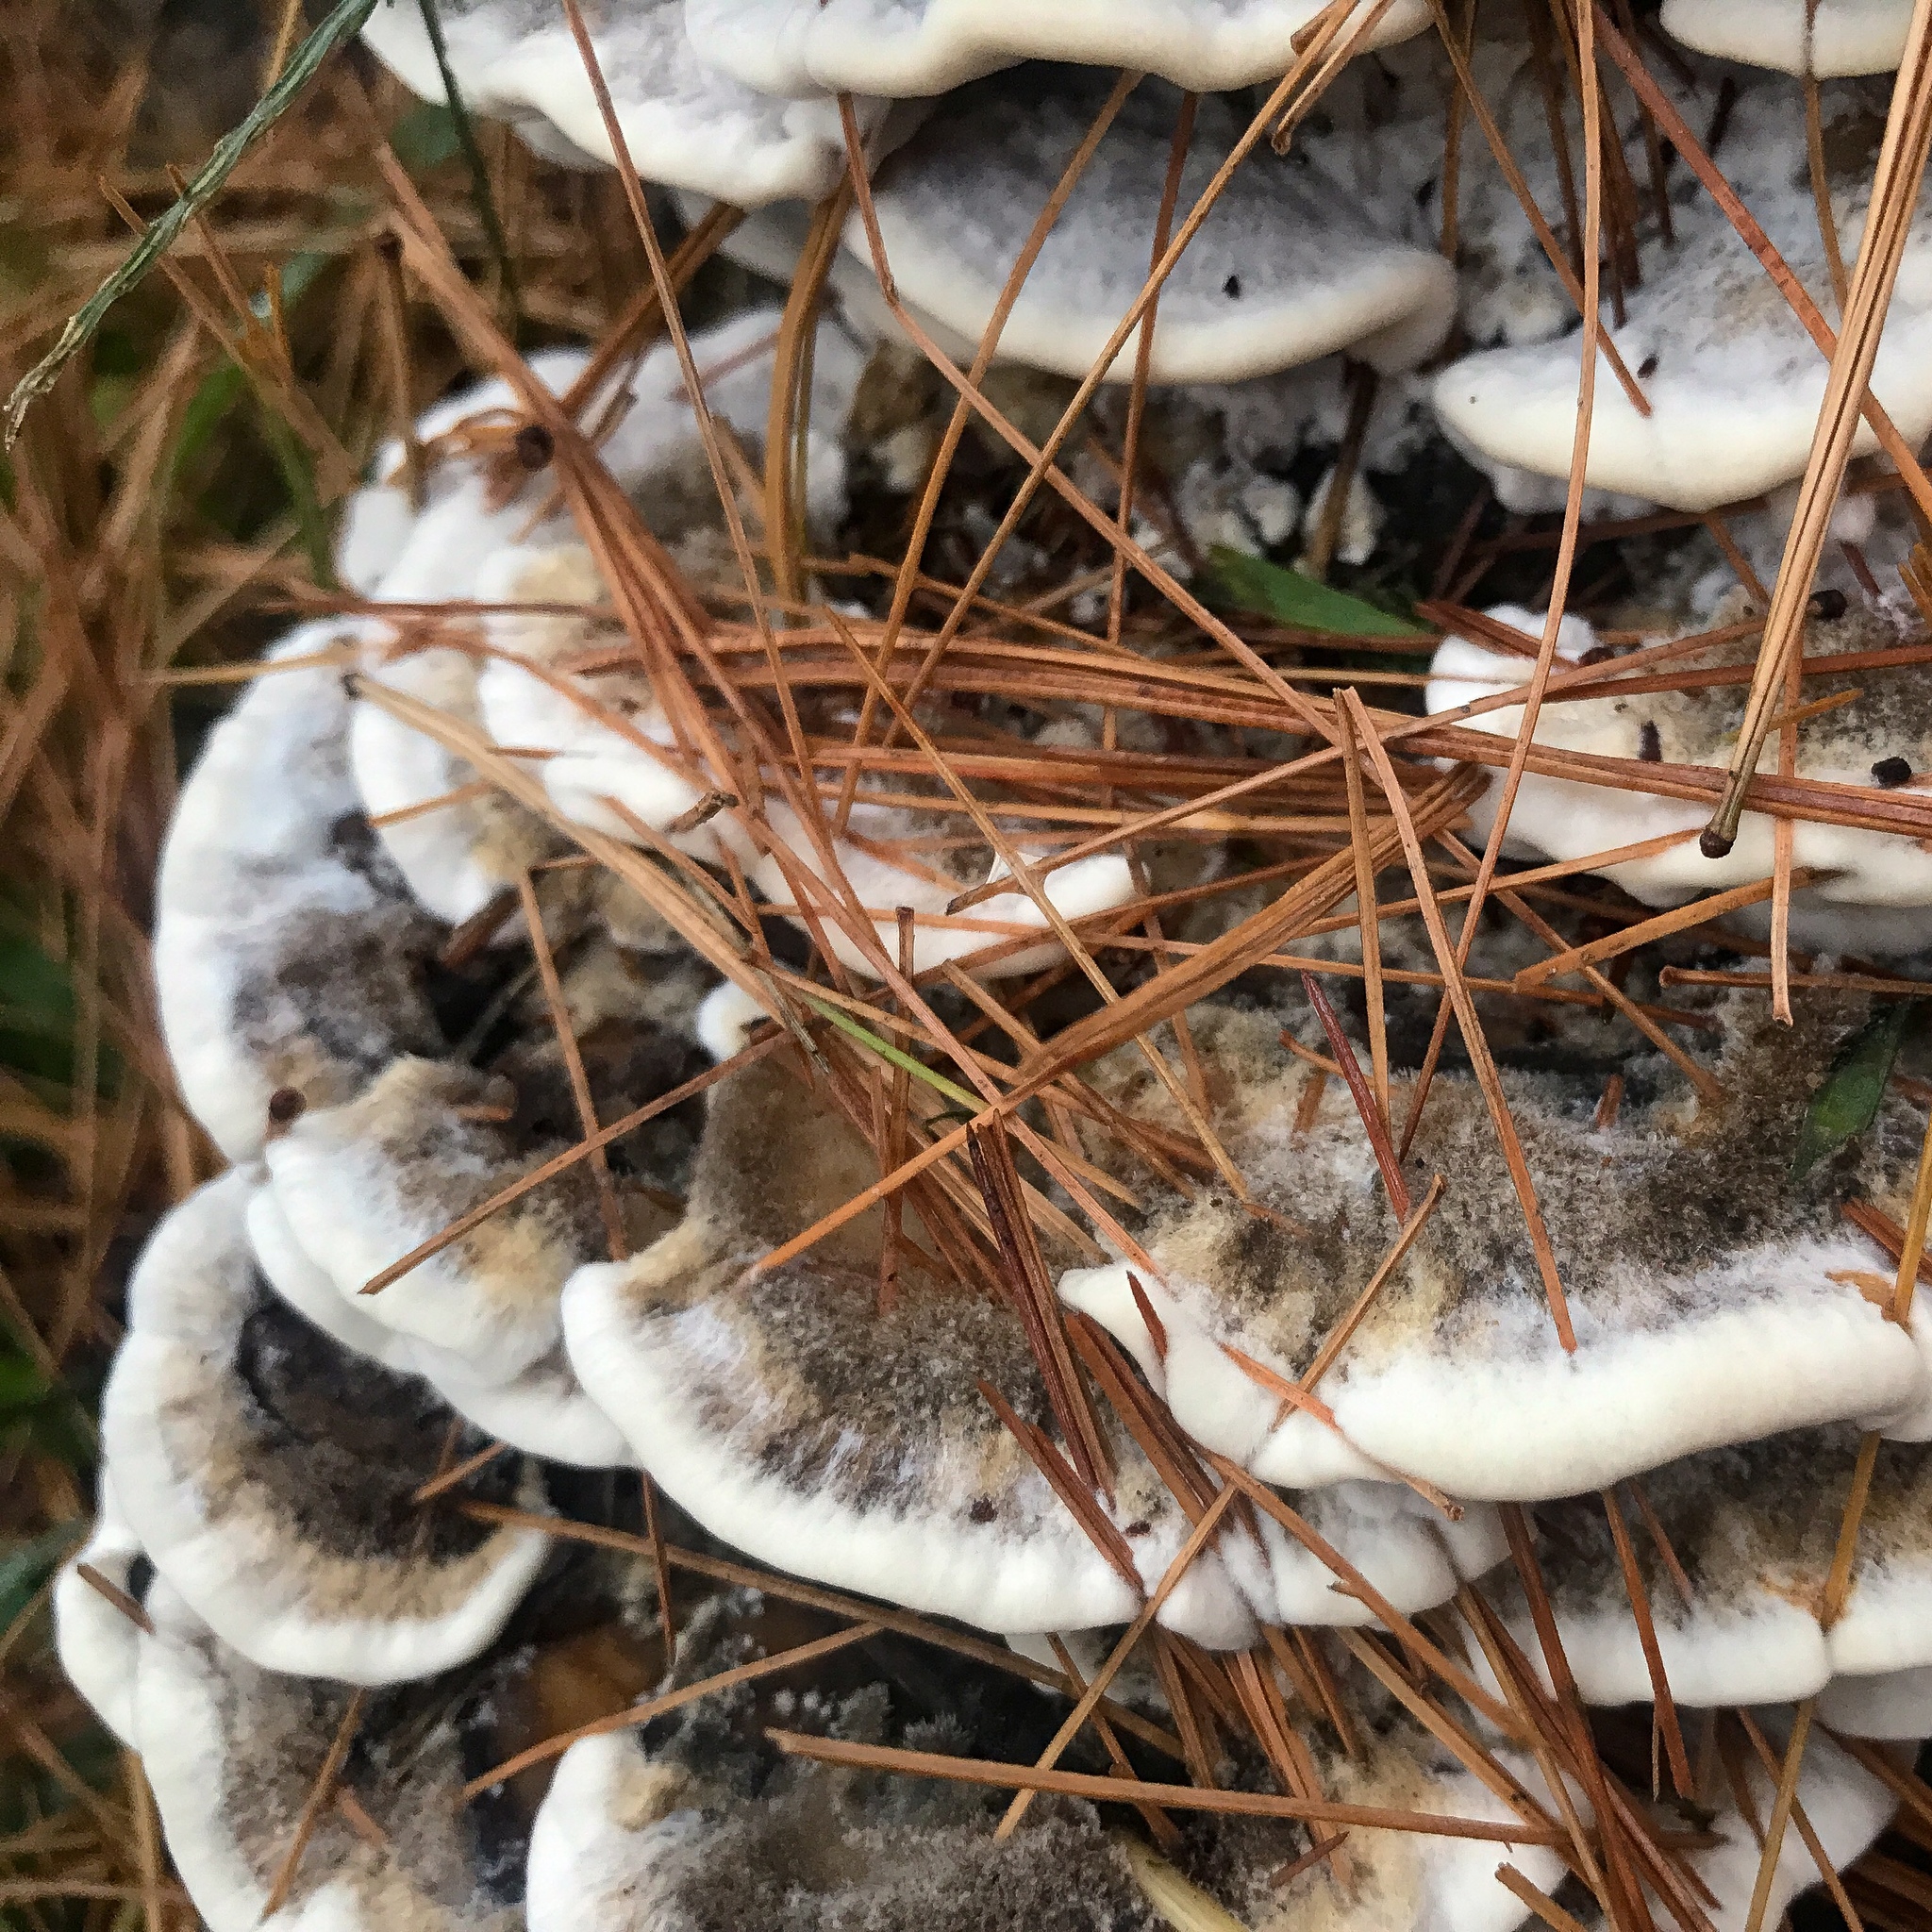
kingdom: Fungi
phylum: Basidiomycota
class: Agaricomycetes
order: Polyporales
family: Phanerochaetaceae
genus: Bjerkandera
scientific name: Bjerkandera adusta
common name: Smoky bracket
